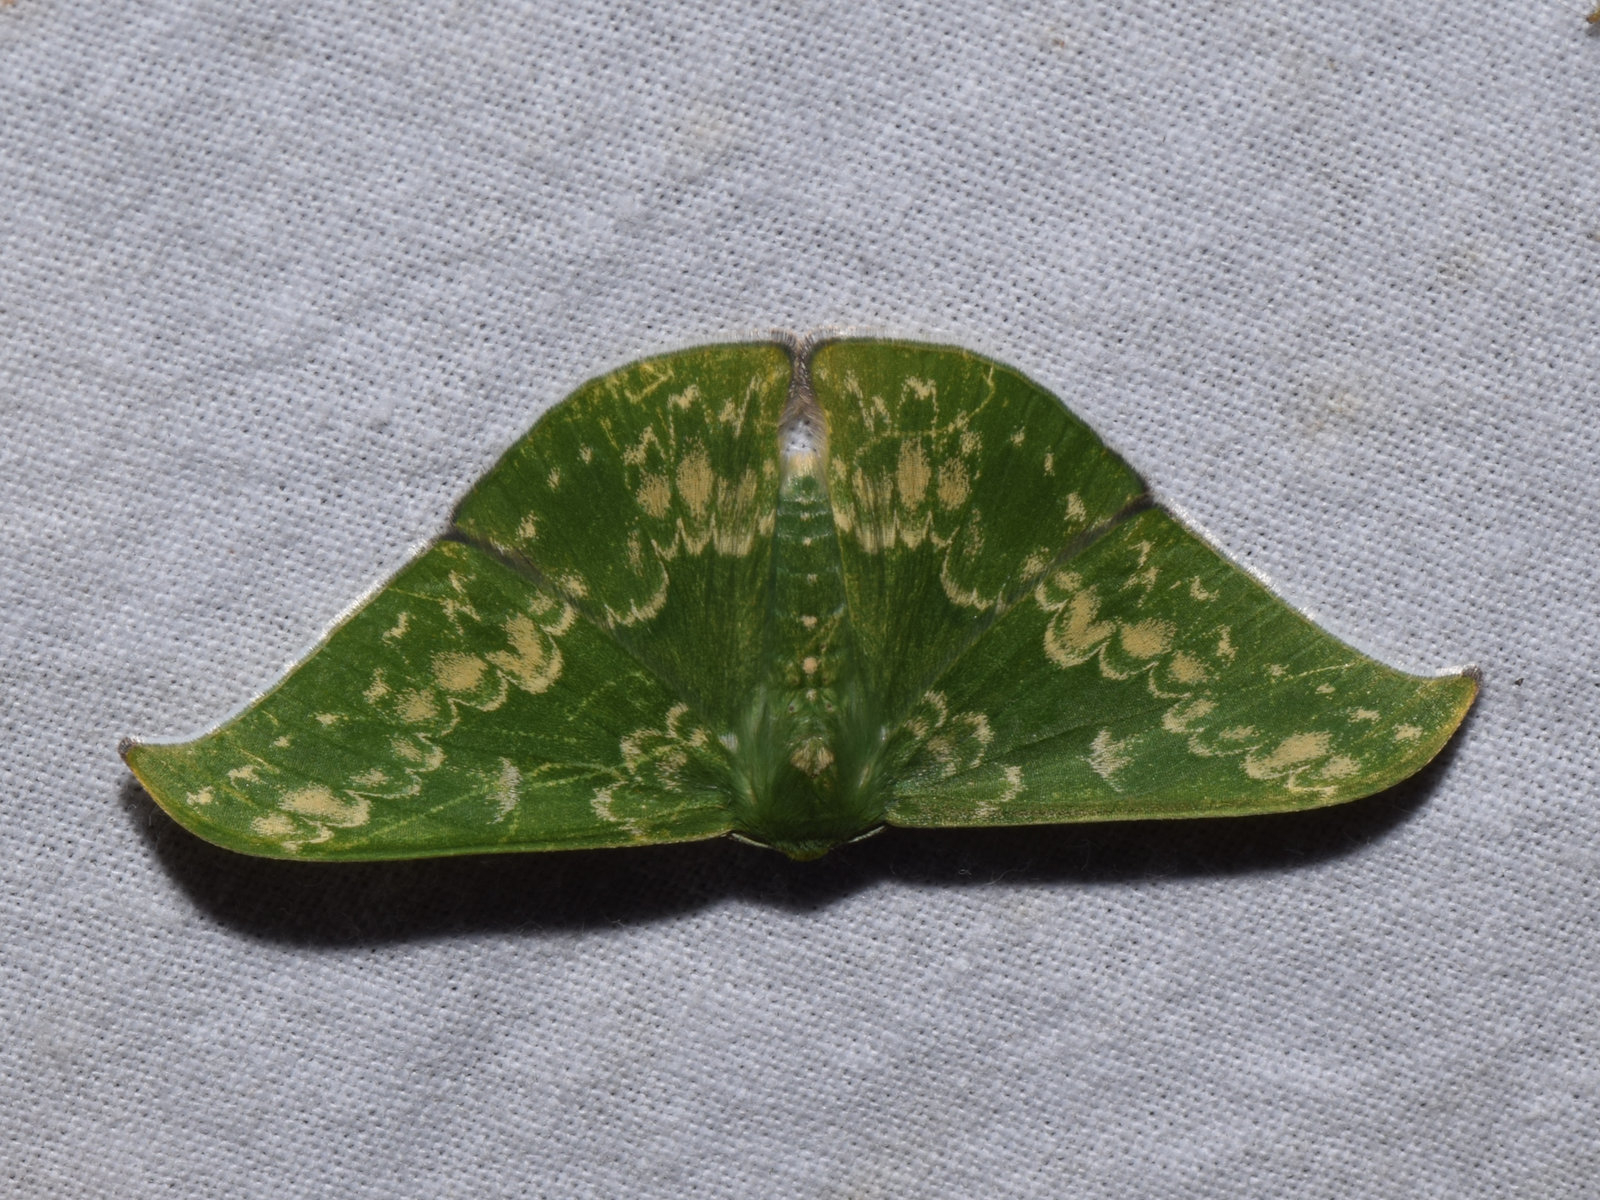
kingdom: Animalia
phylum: Arthropoda
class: Insecta
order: Lepidoptera
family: Geometridae
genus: Tanaorhinus
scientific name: Tanaorhinus kina
